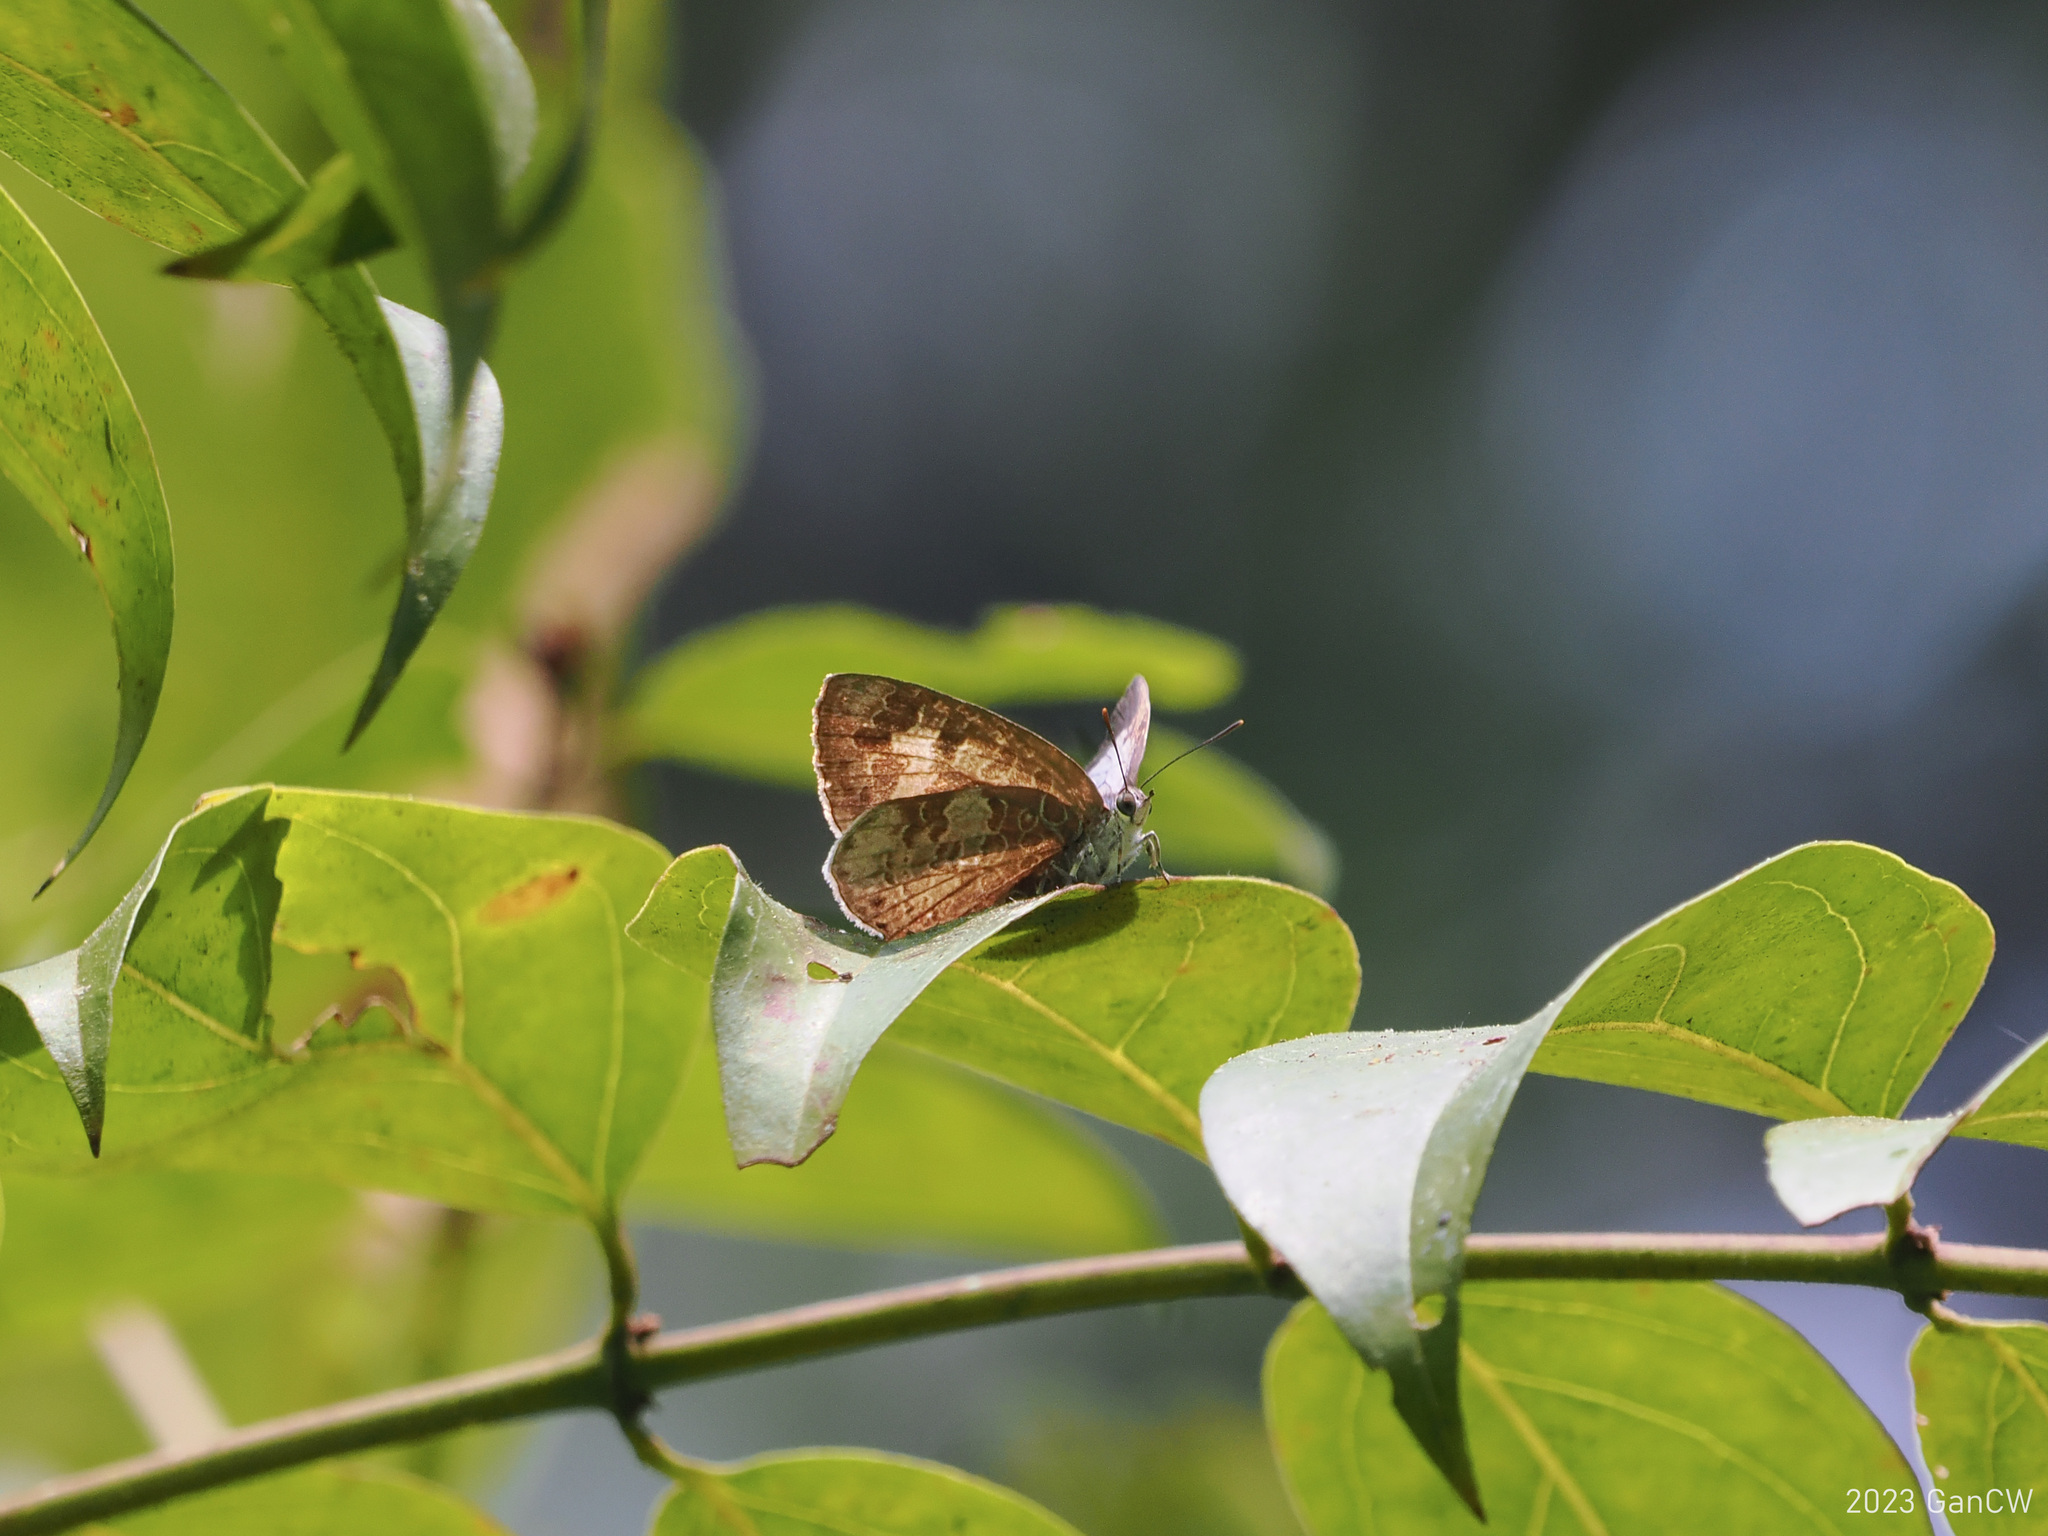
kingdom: Animalia
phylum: Arthropoda
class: Insecta
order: Lepidoptera
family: Lycaenidae
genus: Arhopala
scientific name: Arhopala birmana
